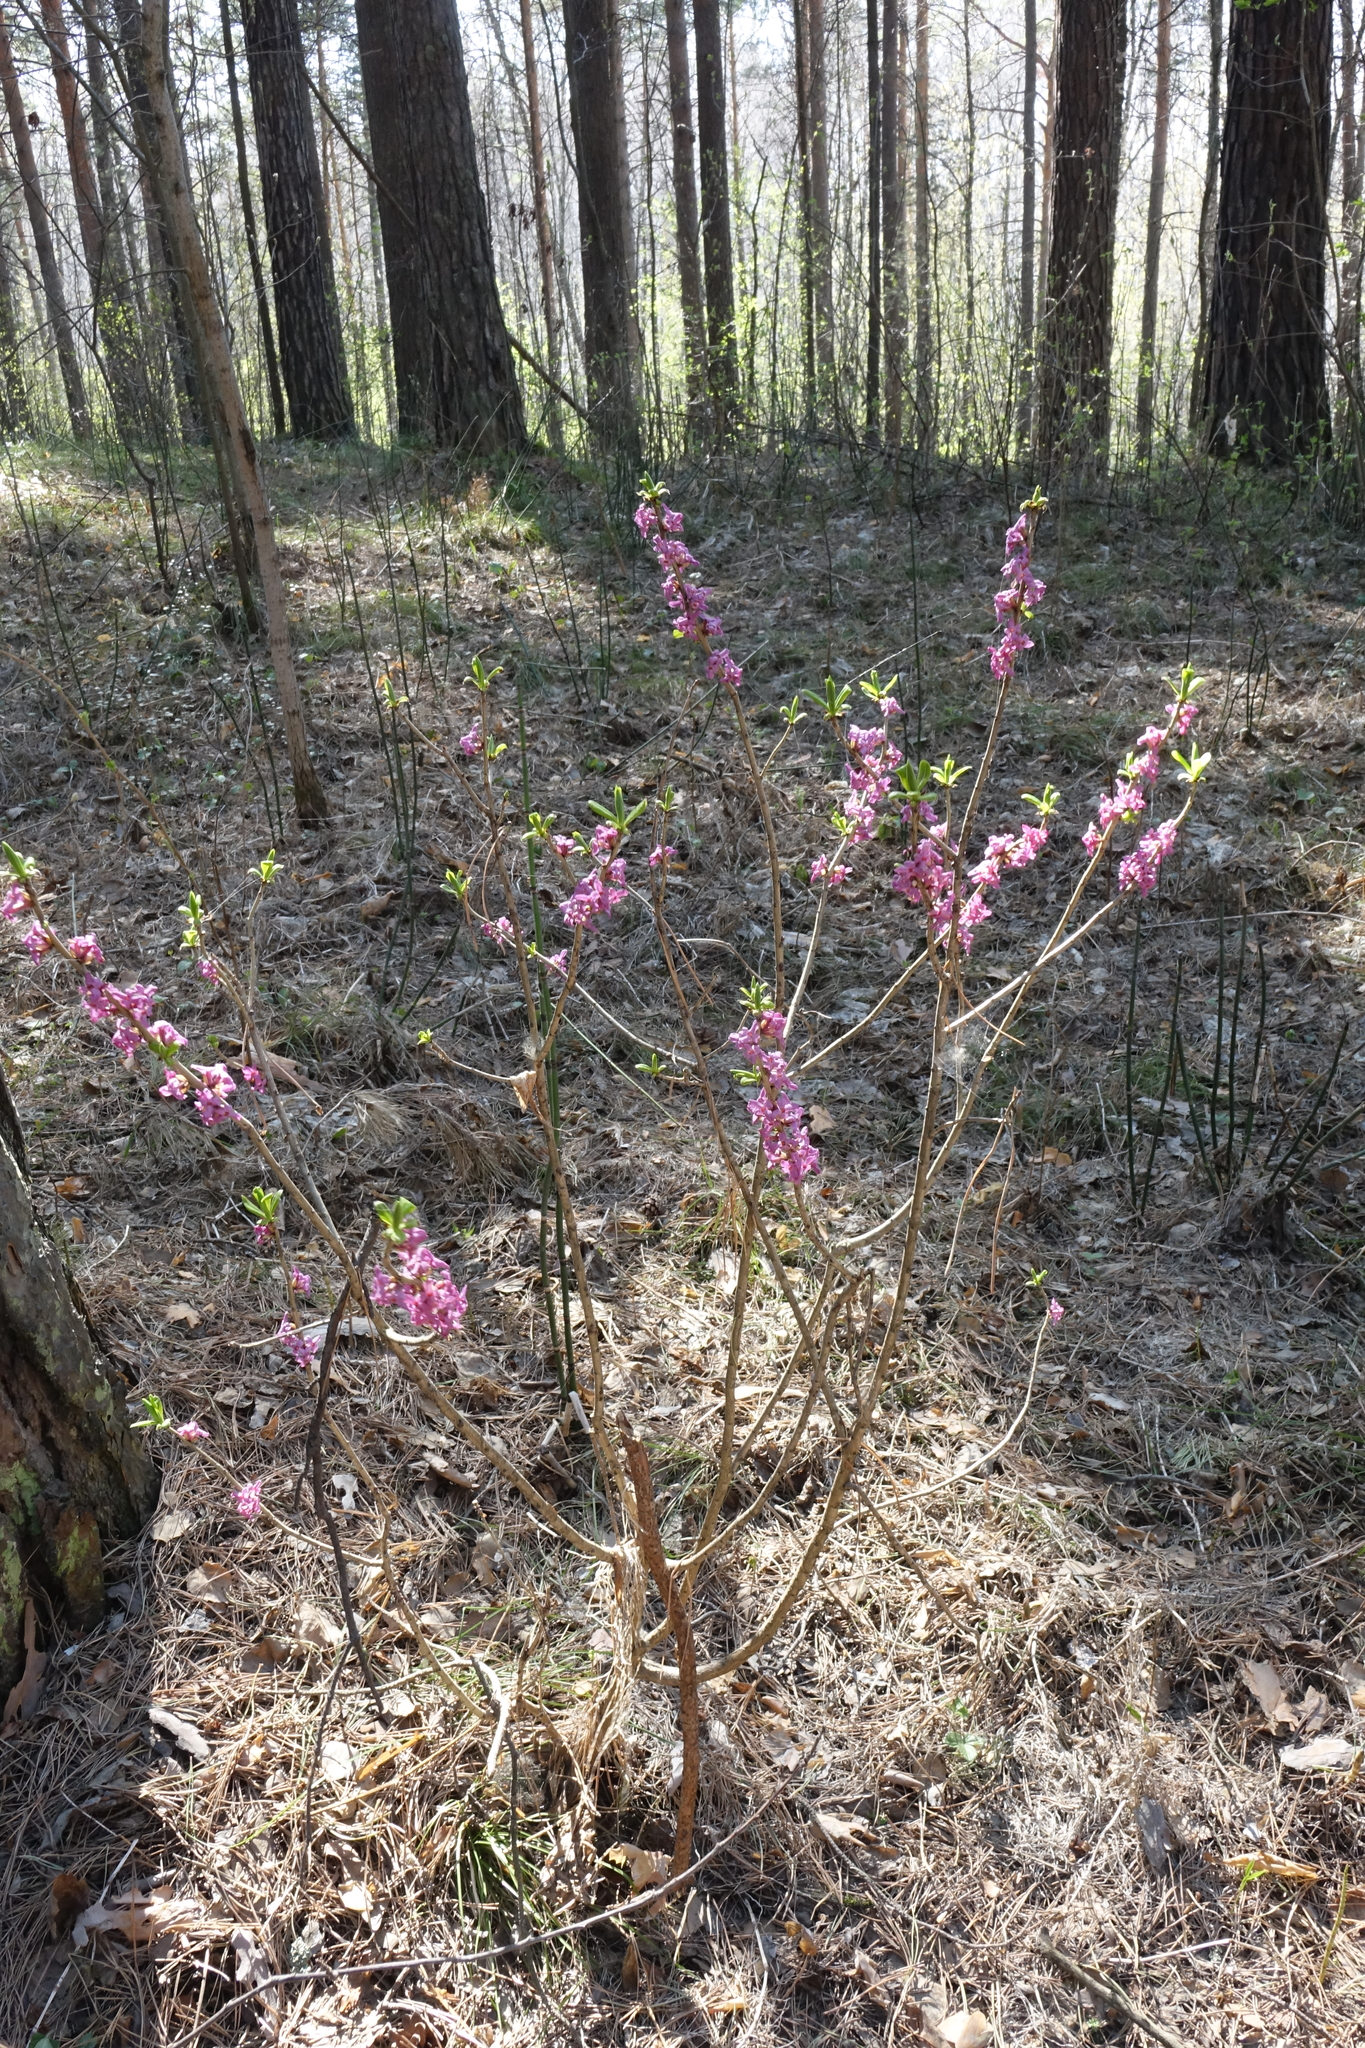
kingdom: Plantae
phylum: Tracheophyta
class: Magnoliopsida
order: Malvales
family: Thymelaeaceae
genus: Daphne
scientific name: Daphne mezereum
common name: Mezereon
